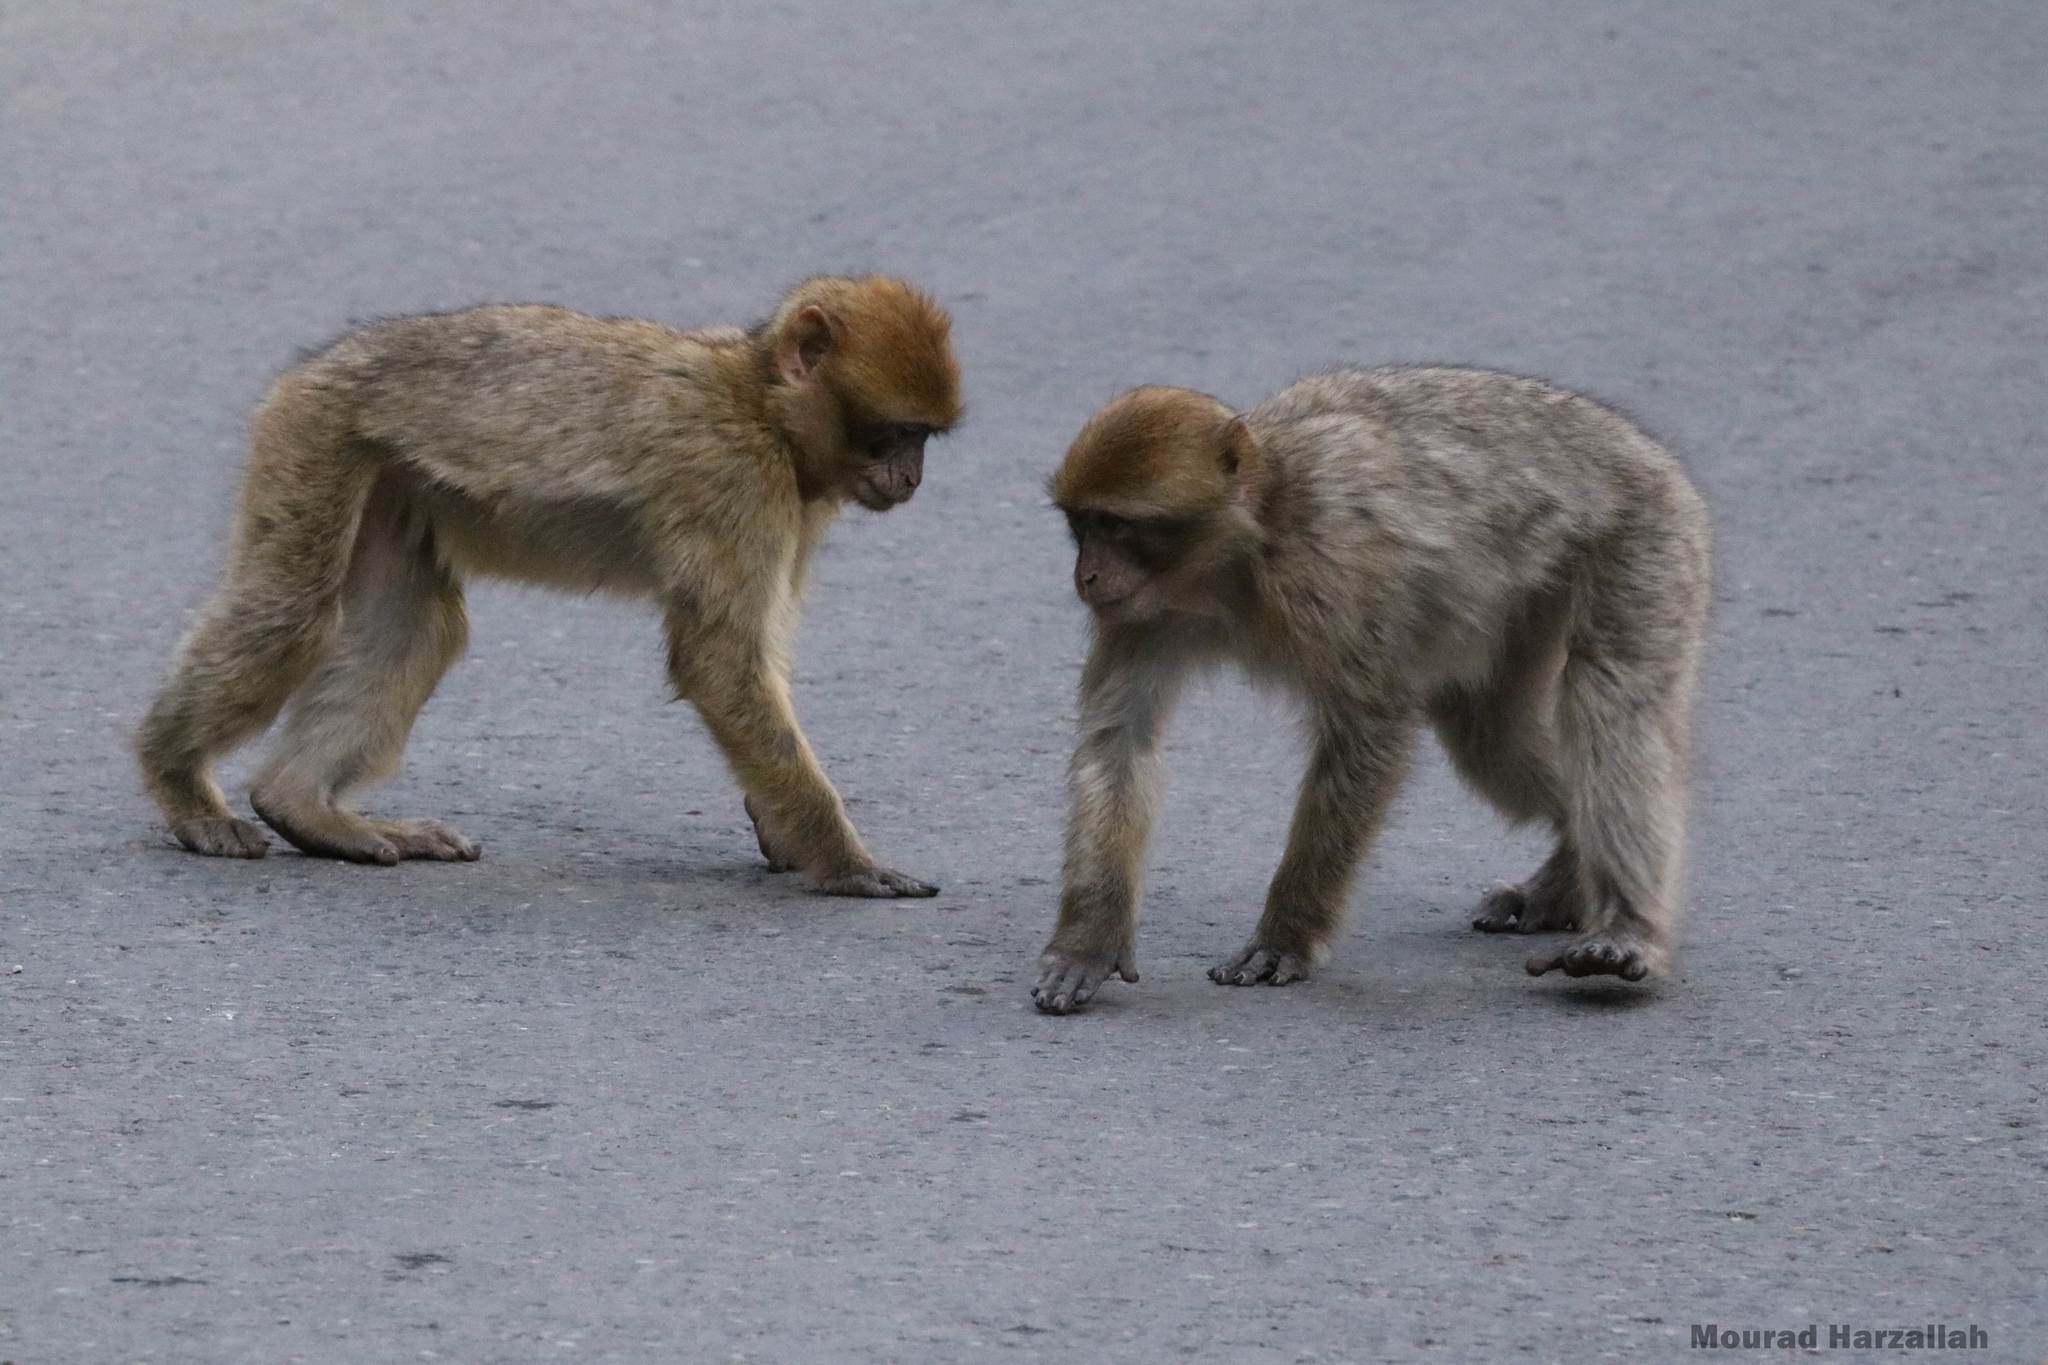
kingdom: Animalia
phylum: Chordata
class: Mammalia
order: Primates
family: Cercopithecidae
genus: Macaca
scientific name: Macaca sylvanus
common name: Barbary macaque
